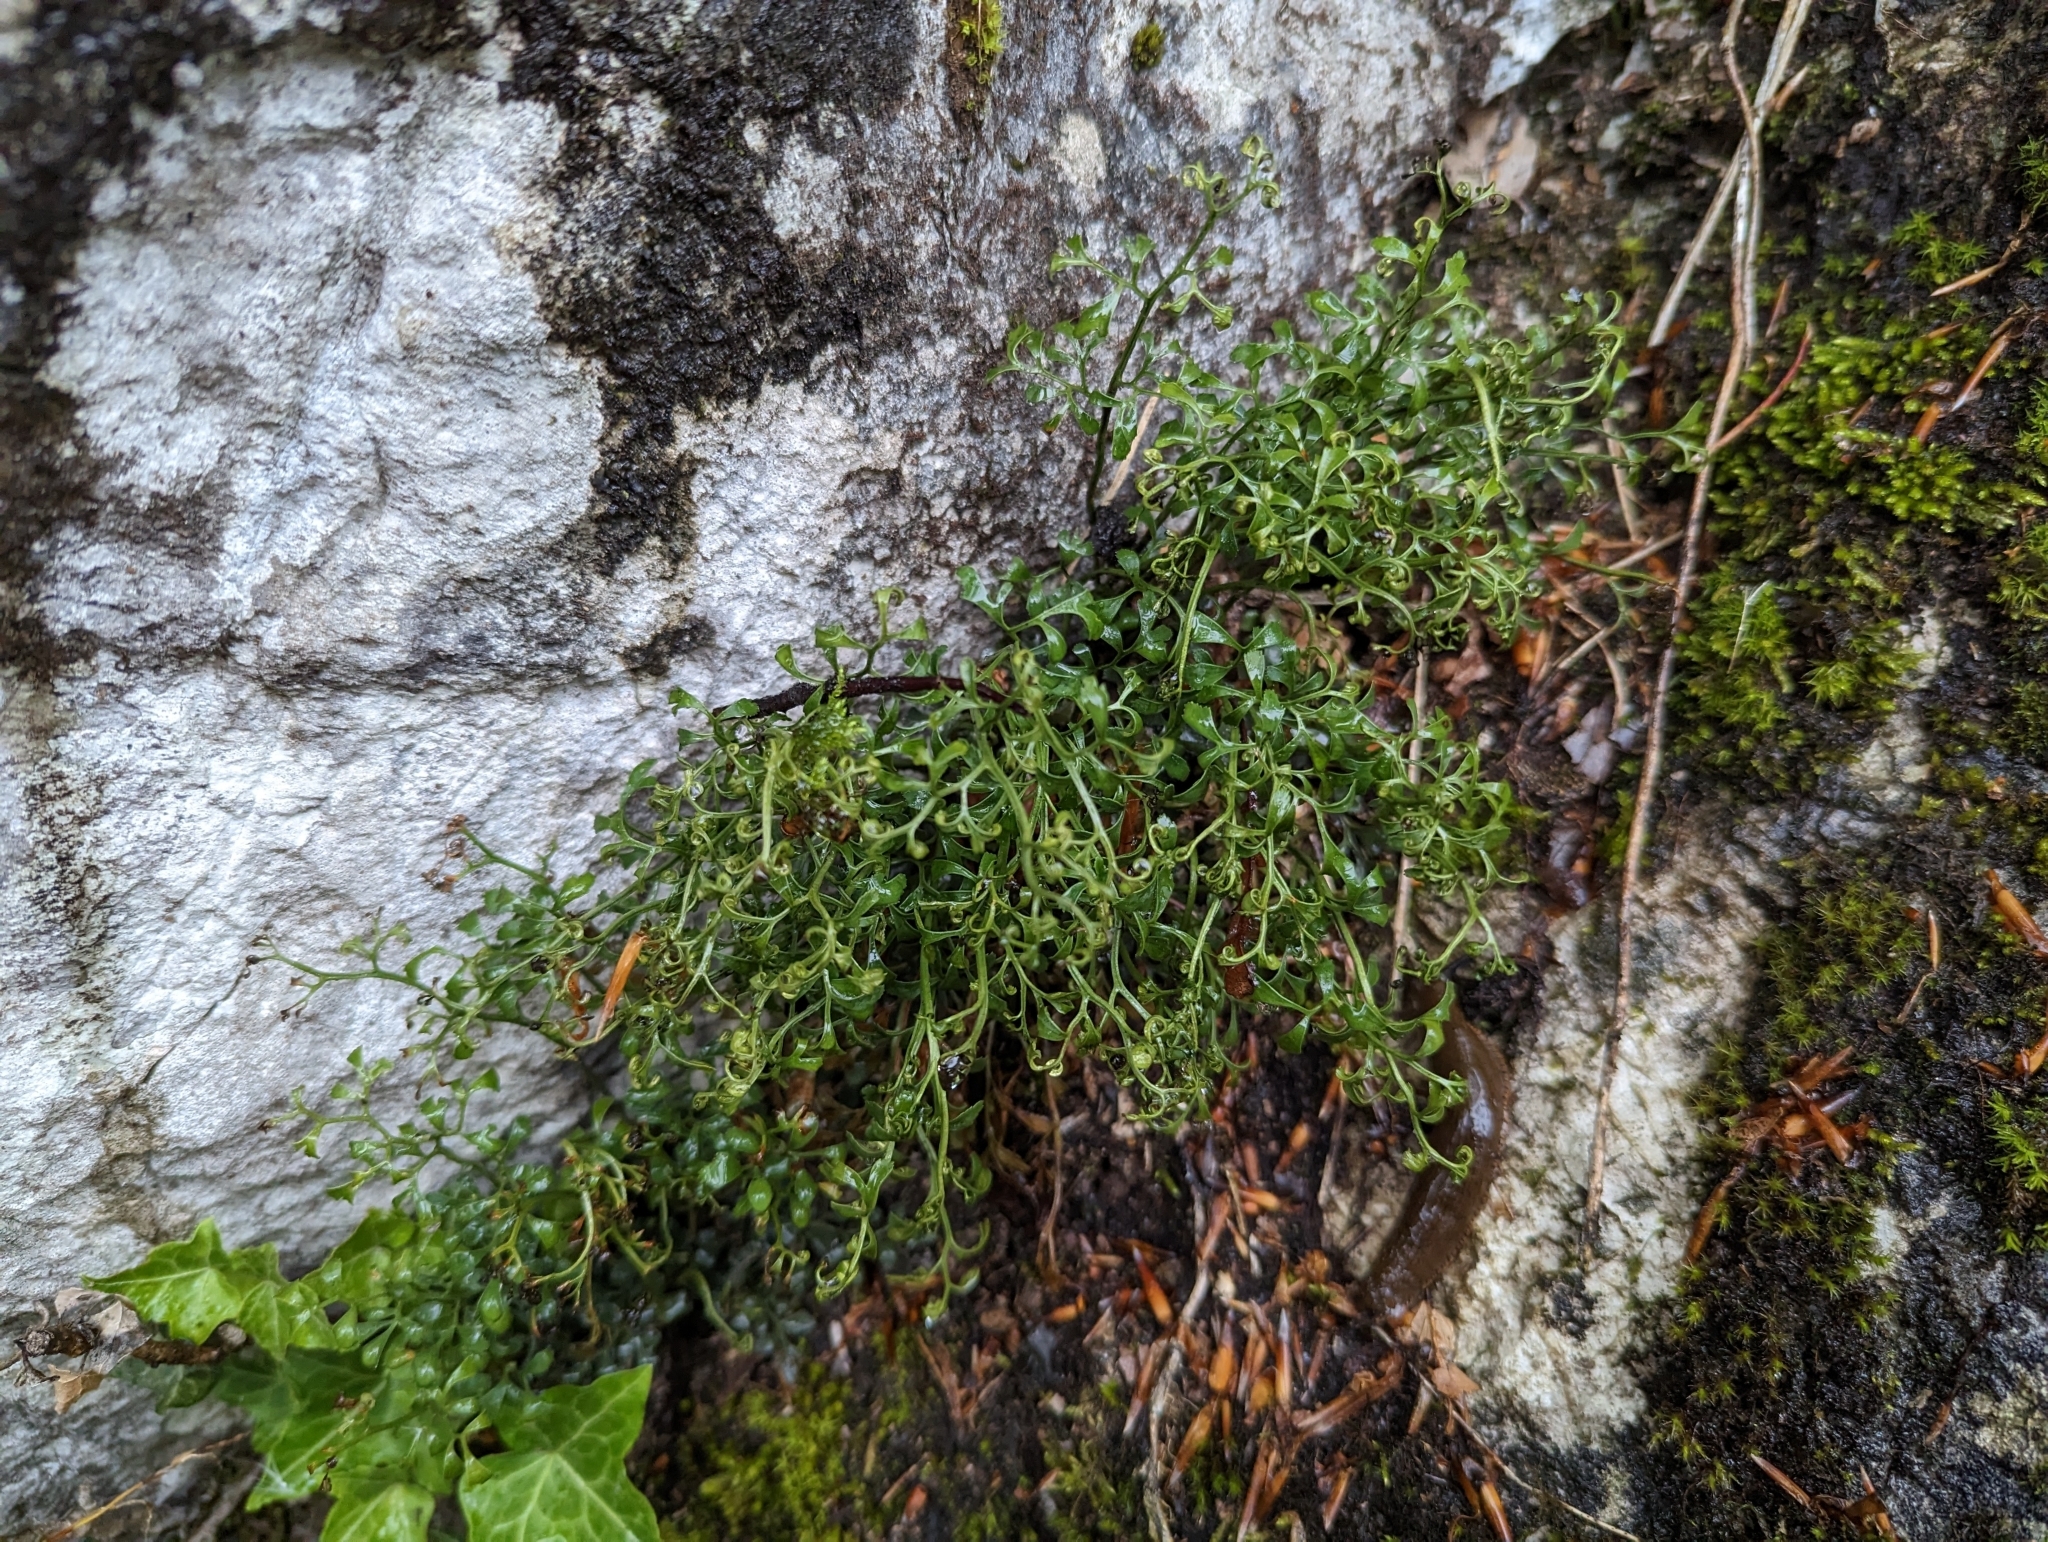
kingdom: Plantae
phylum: Tracheophyta
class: Polypodiopsida
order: Polypodiales
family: Aspleniaceae
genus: Asplenium
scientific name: Asplenium ruta-muraria
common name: Wall-rue
